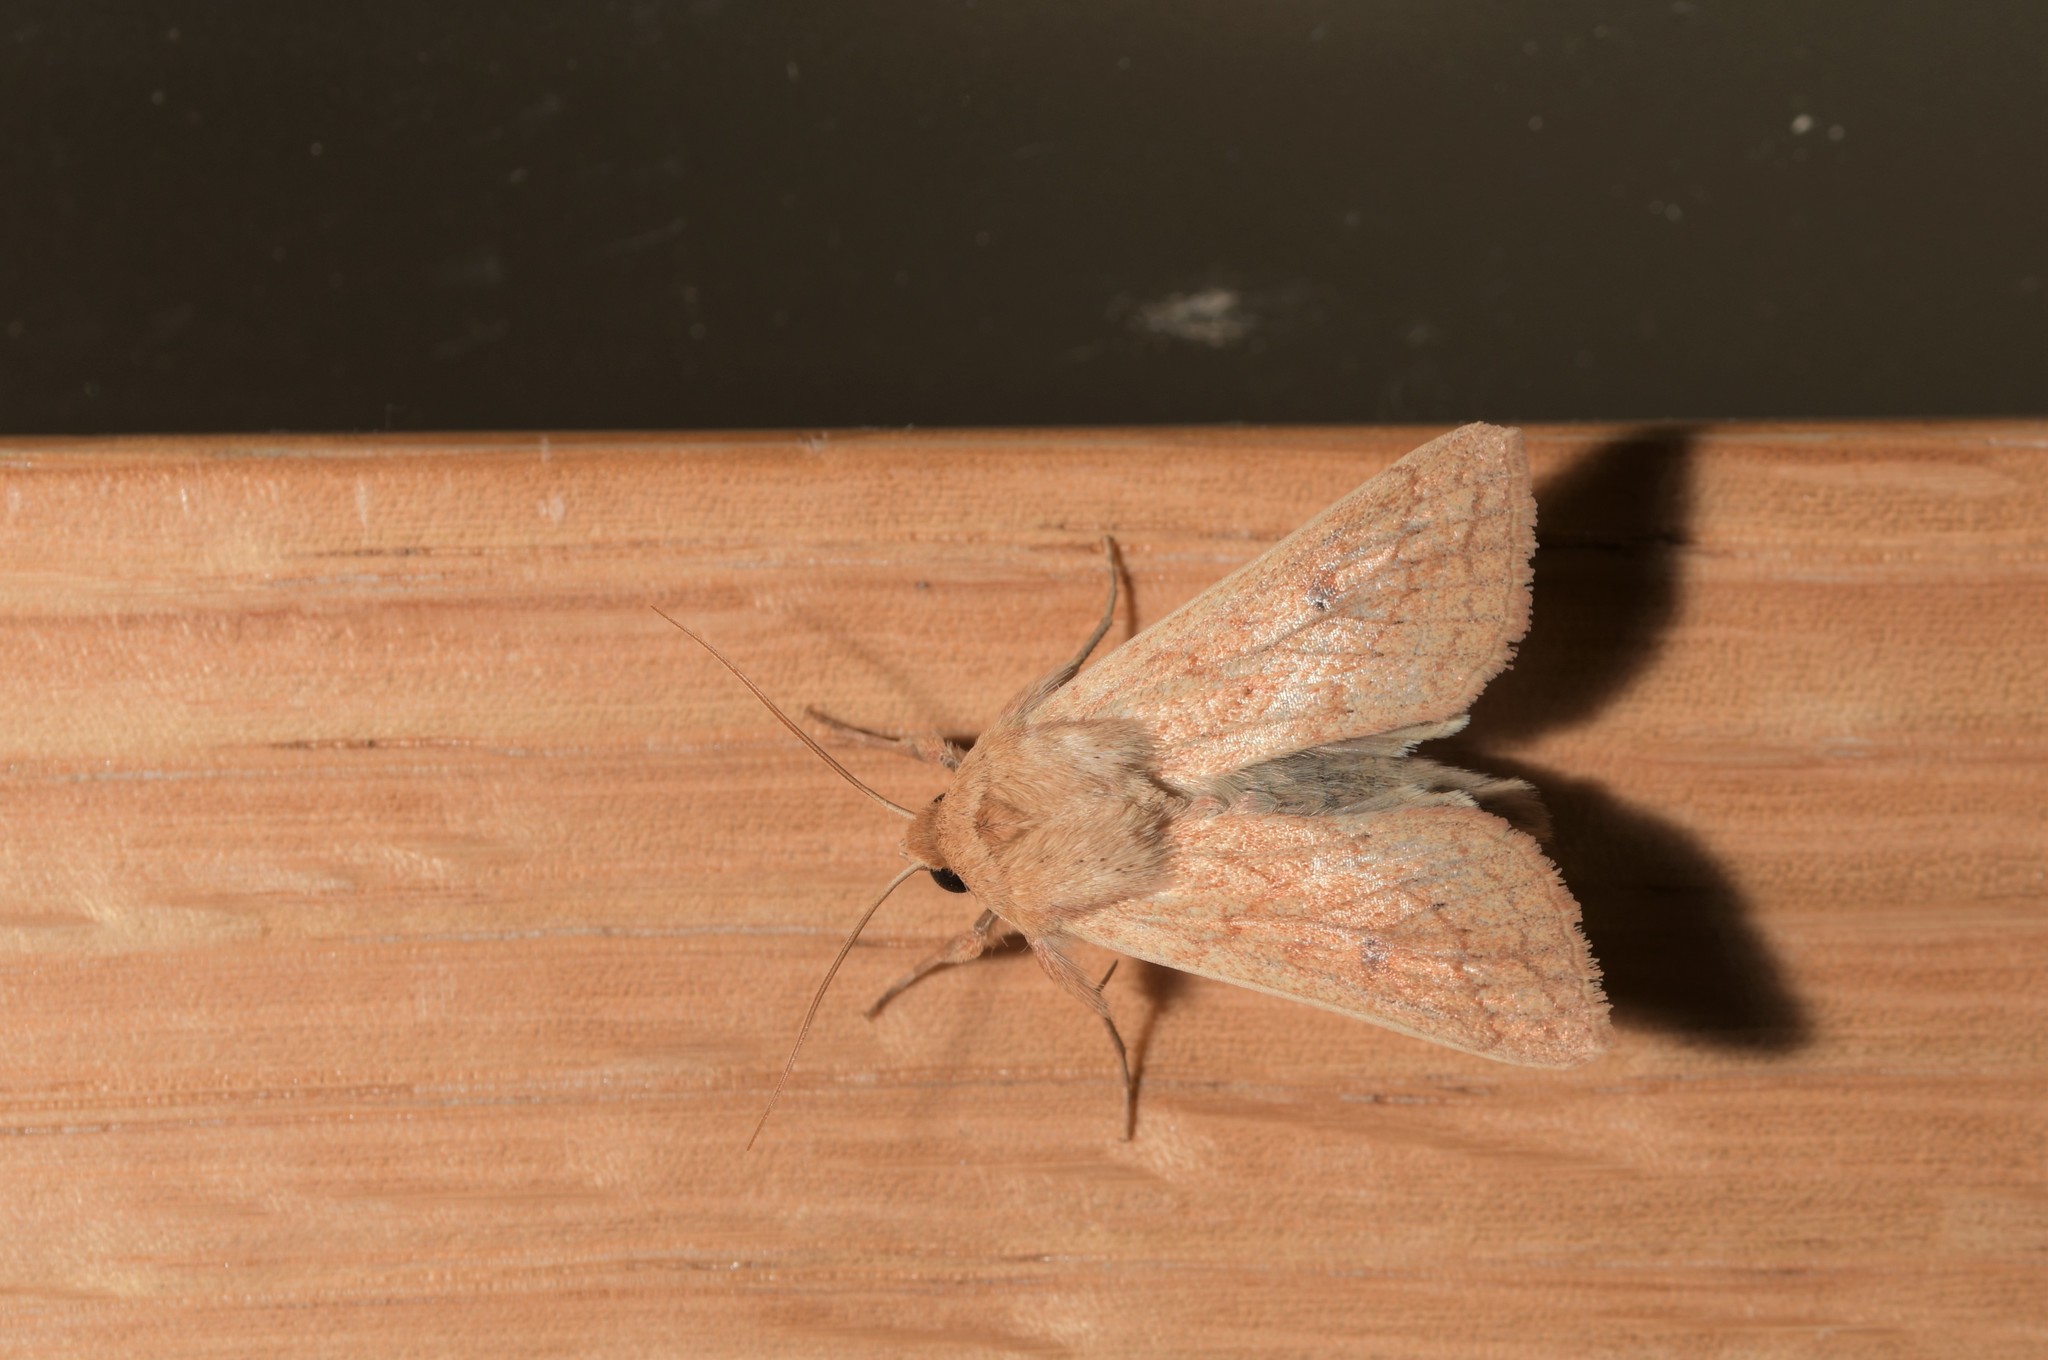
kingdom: Animalia
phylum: Arthropoda
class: Insecta
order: Lepidoptera
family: Noctuidae
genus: Mythimna
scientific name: Mythimna vitellina
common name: Delicate
